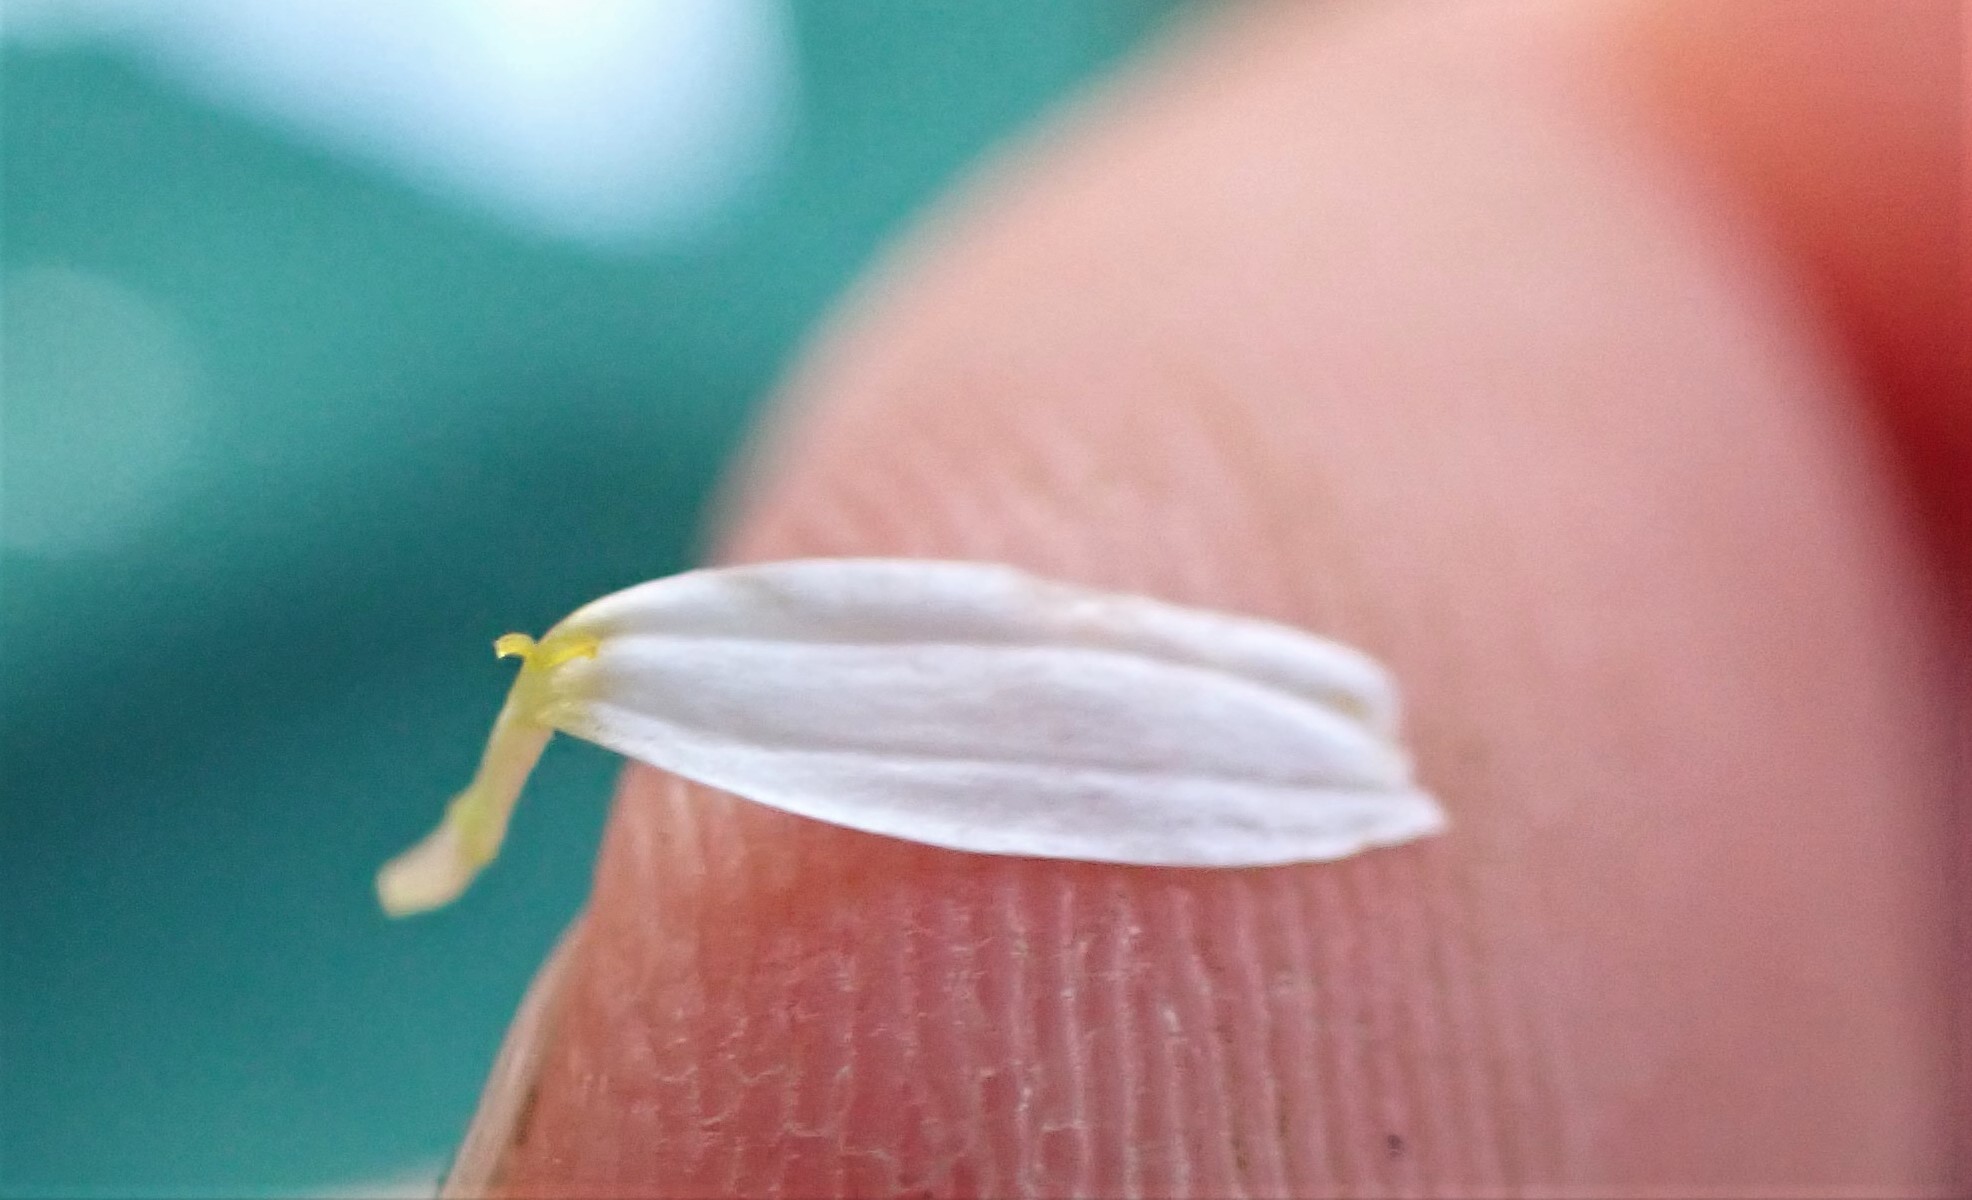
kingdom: Plantae
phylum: Tracheophyta
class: Magnoliopsida
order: Asterales
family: Asteraceae
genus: Tripleurospermum
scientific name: Tripleurospermum inodorum
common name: Scentless mayweed
